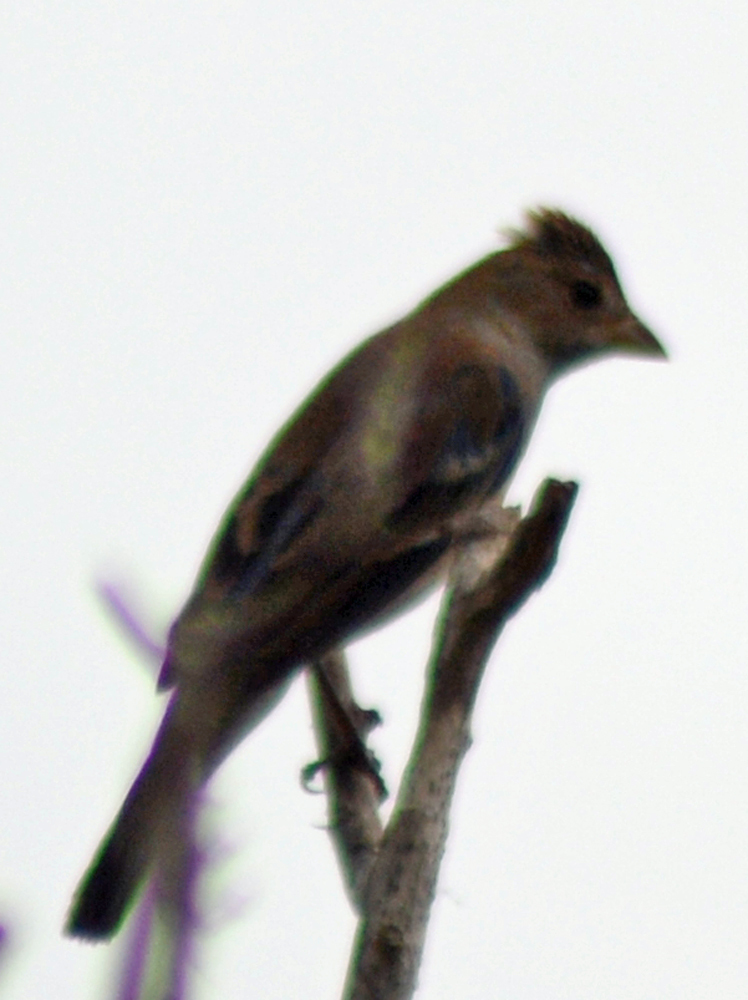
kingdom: Animalia
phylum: Chordata
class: Aves
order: Passeriformes
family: Cardinalidae
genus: Passerina
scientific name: Passerina cyanea
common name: Indigo bunting
